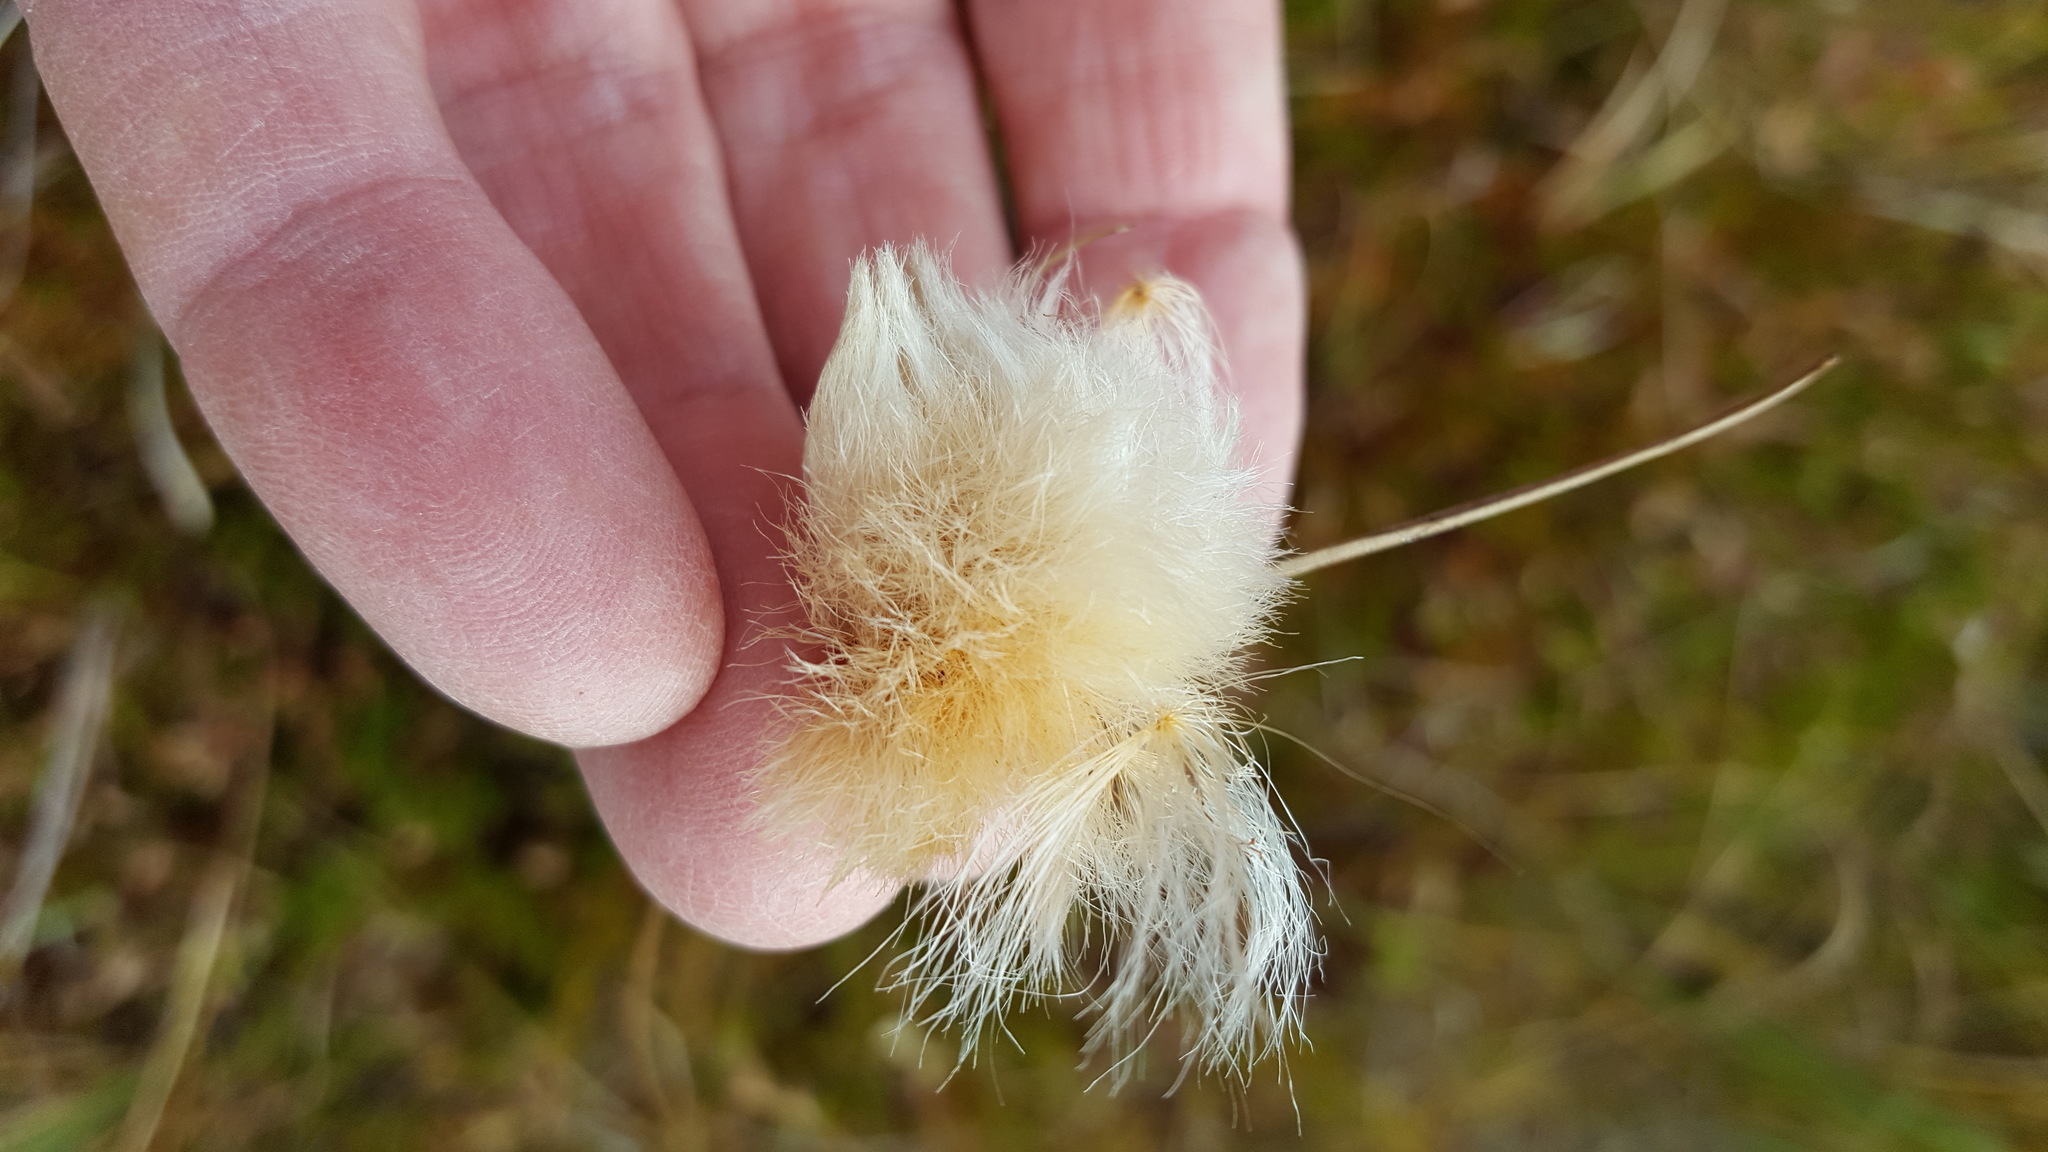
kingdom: Plantae
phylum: Tracheophyta
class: Liliopsida
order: Poales
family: Cyperaceae
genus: Eriophorum
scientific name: Eriophorum virginicum
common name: Tawny cottongrass
